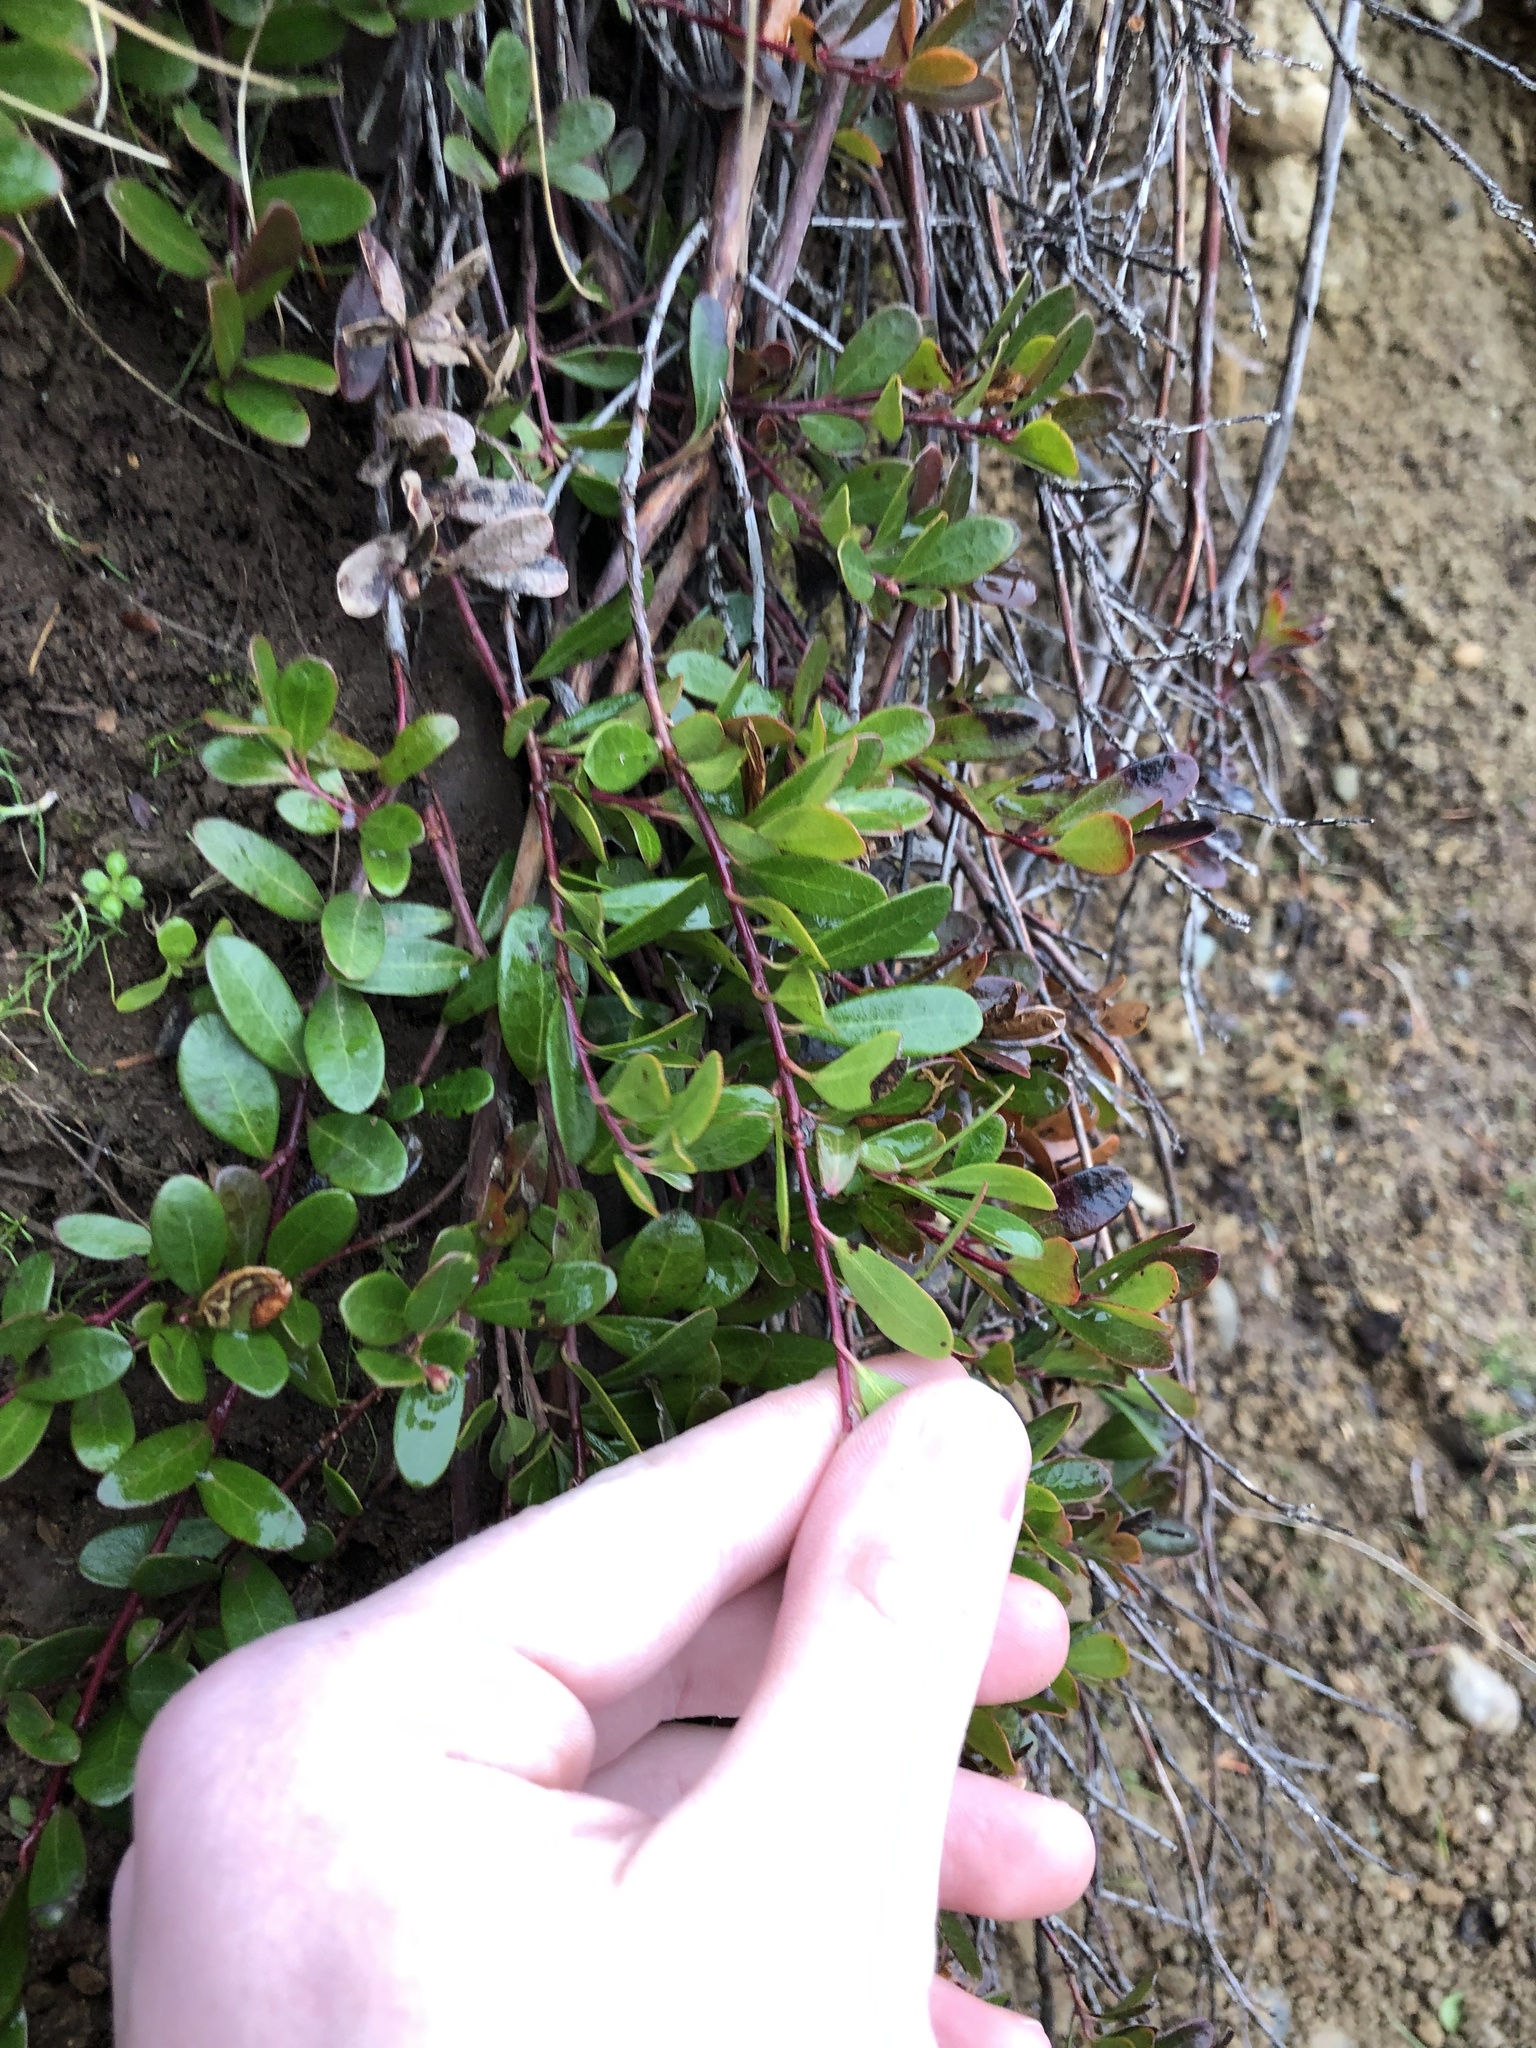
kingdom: Plantae
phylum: Tracheophyta
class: Magnoliopsida
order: Ericales
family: Ericaceae
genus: Arctostaphylos
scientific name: Arctostaphylos uva-ursi
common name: Bearberry
